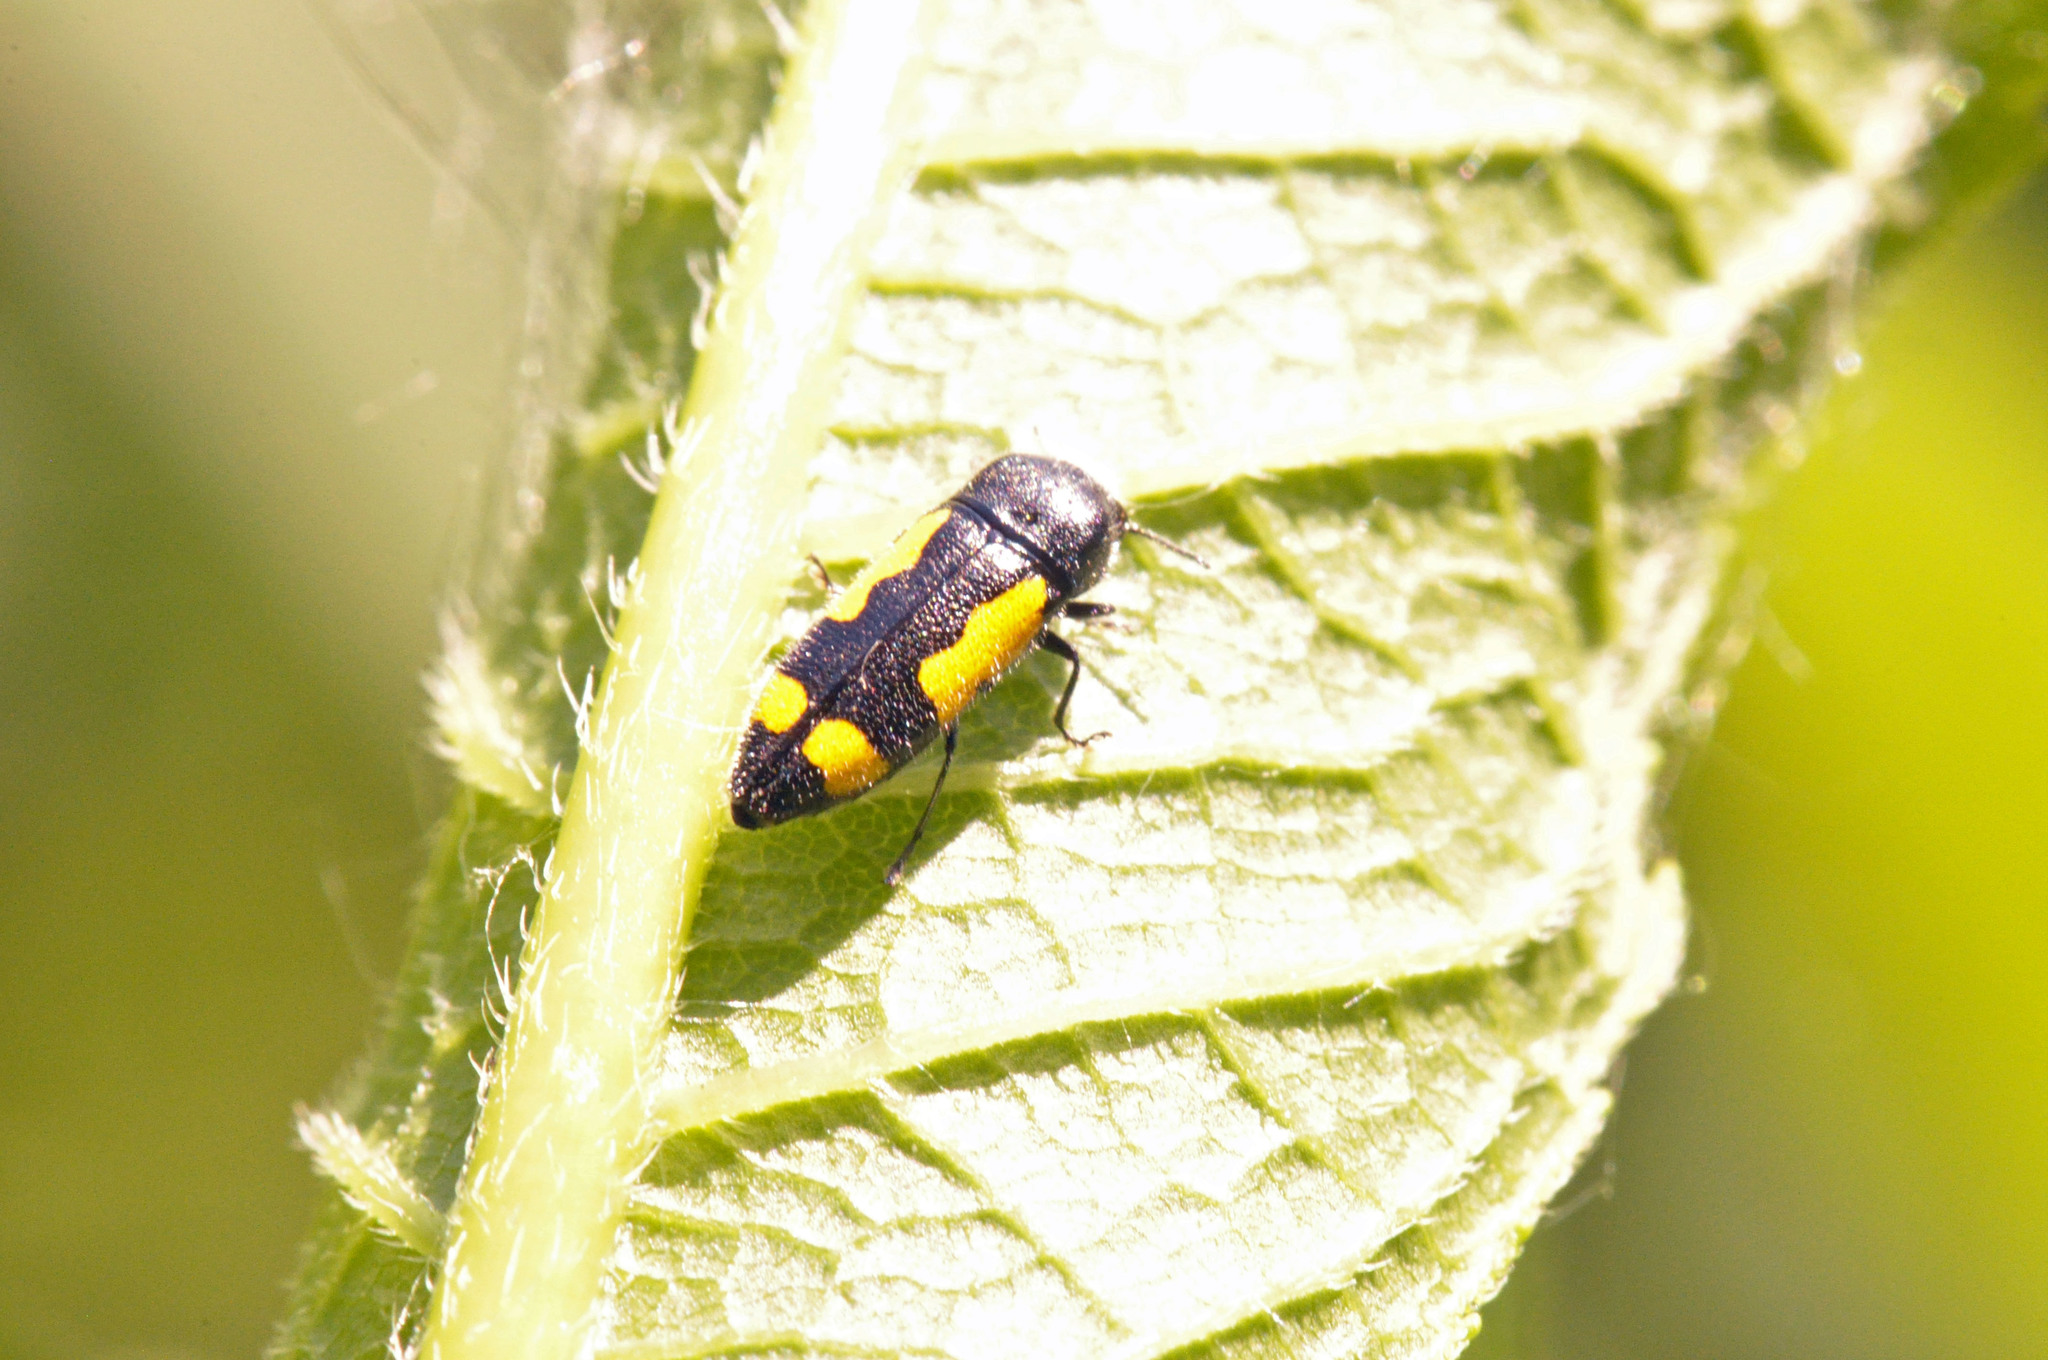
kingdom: Animalia
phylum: Arthropoda
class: Insecta
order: Coleoptera
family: Buprestidae
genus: Ptosima
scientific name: Ptosima gibbicollis
